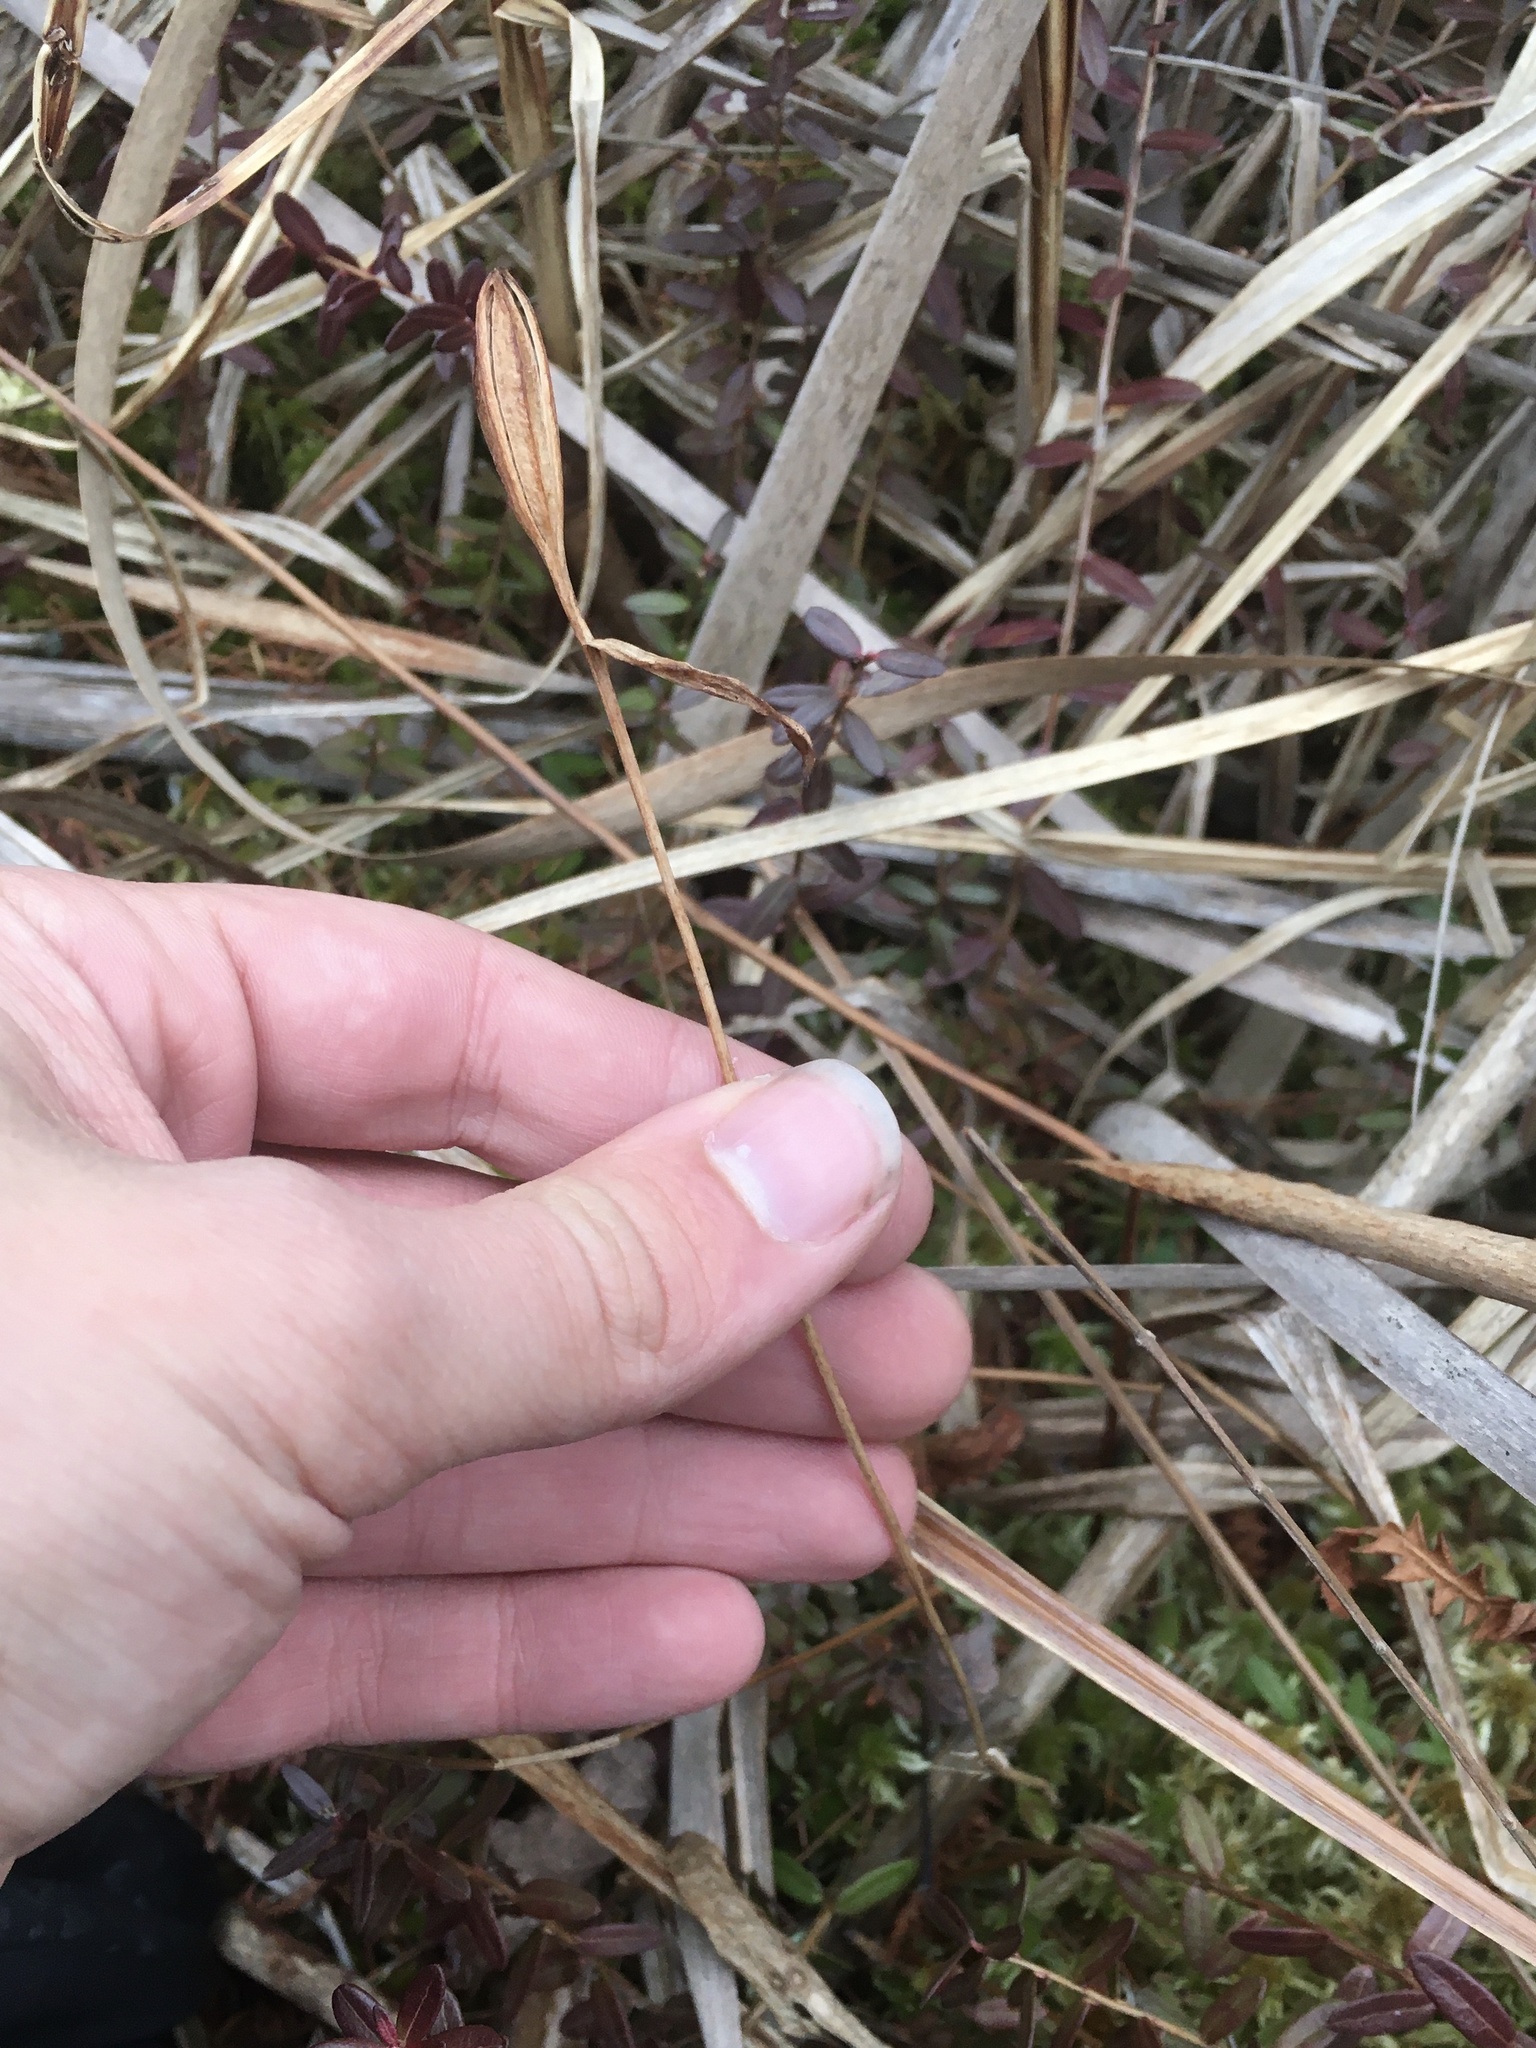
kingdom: Plantae
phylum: Tracheophyta
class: Liliopsida
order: Asparagales
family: Orchidaceae
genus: Pogonia
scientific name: Pogonia ophioglossoides
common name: Rose pogonia
